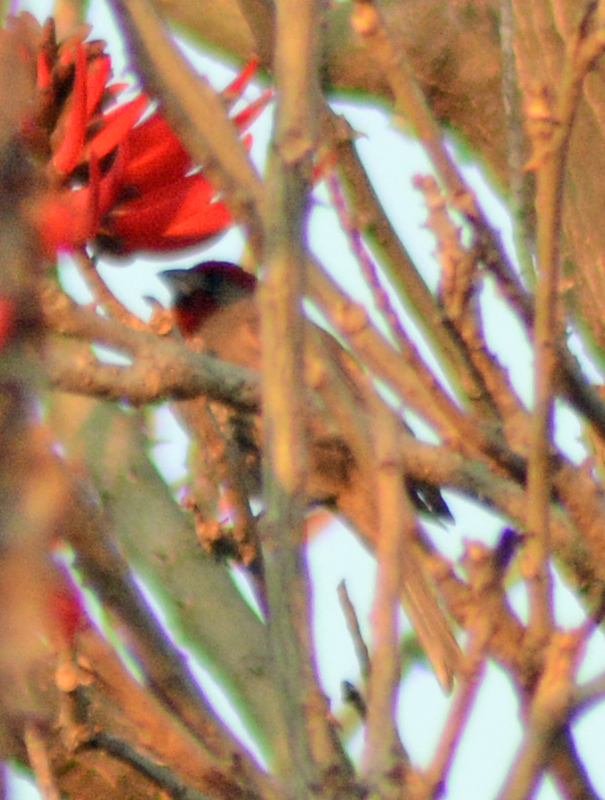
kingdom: Animalia
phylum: Chordata
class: Aves
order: Passeriformes
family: Fringillidae
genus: Haemorhous
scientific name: Haemorhous mexicanus
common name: House finch
